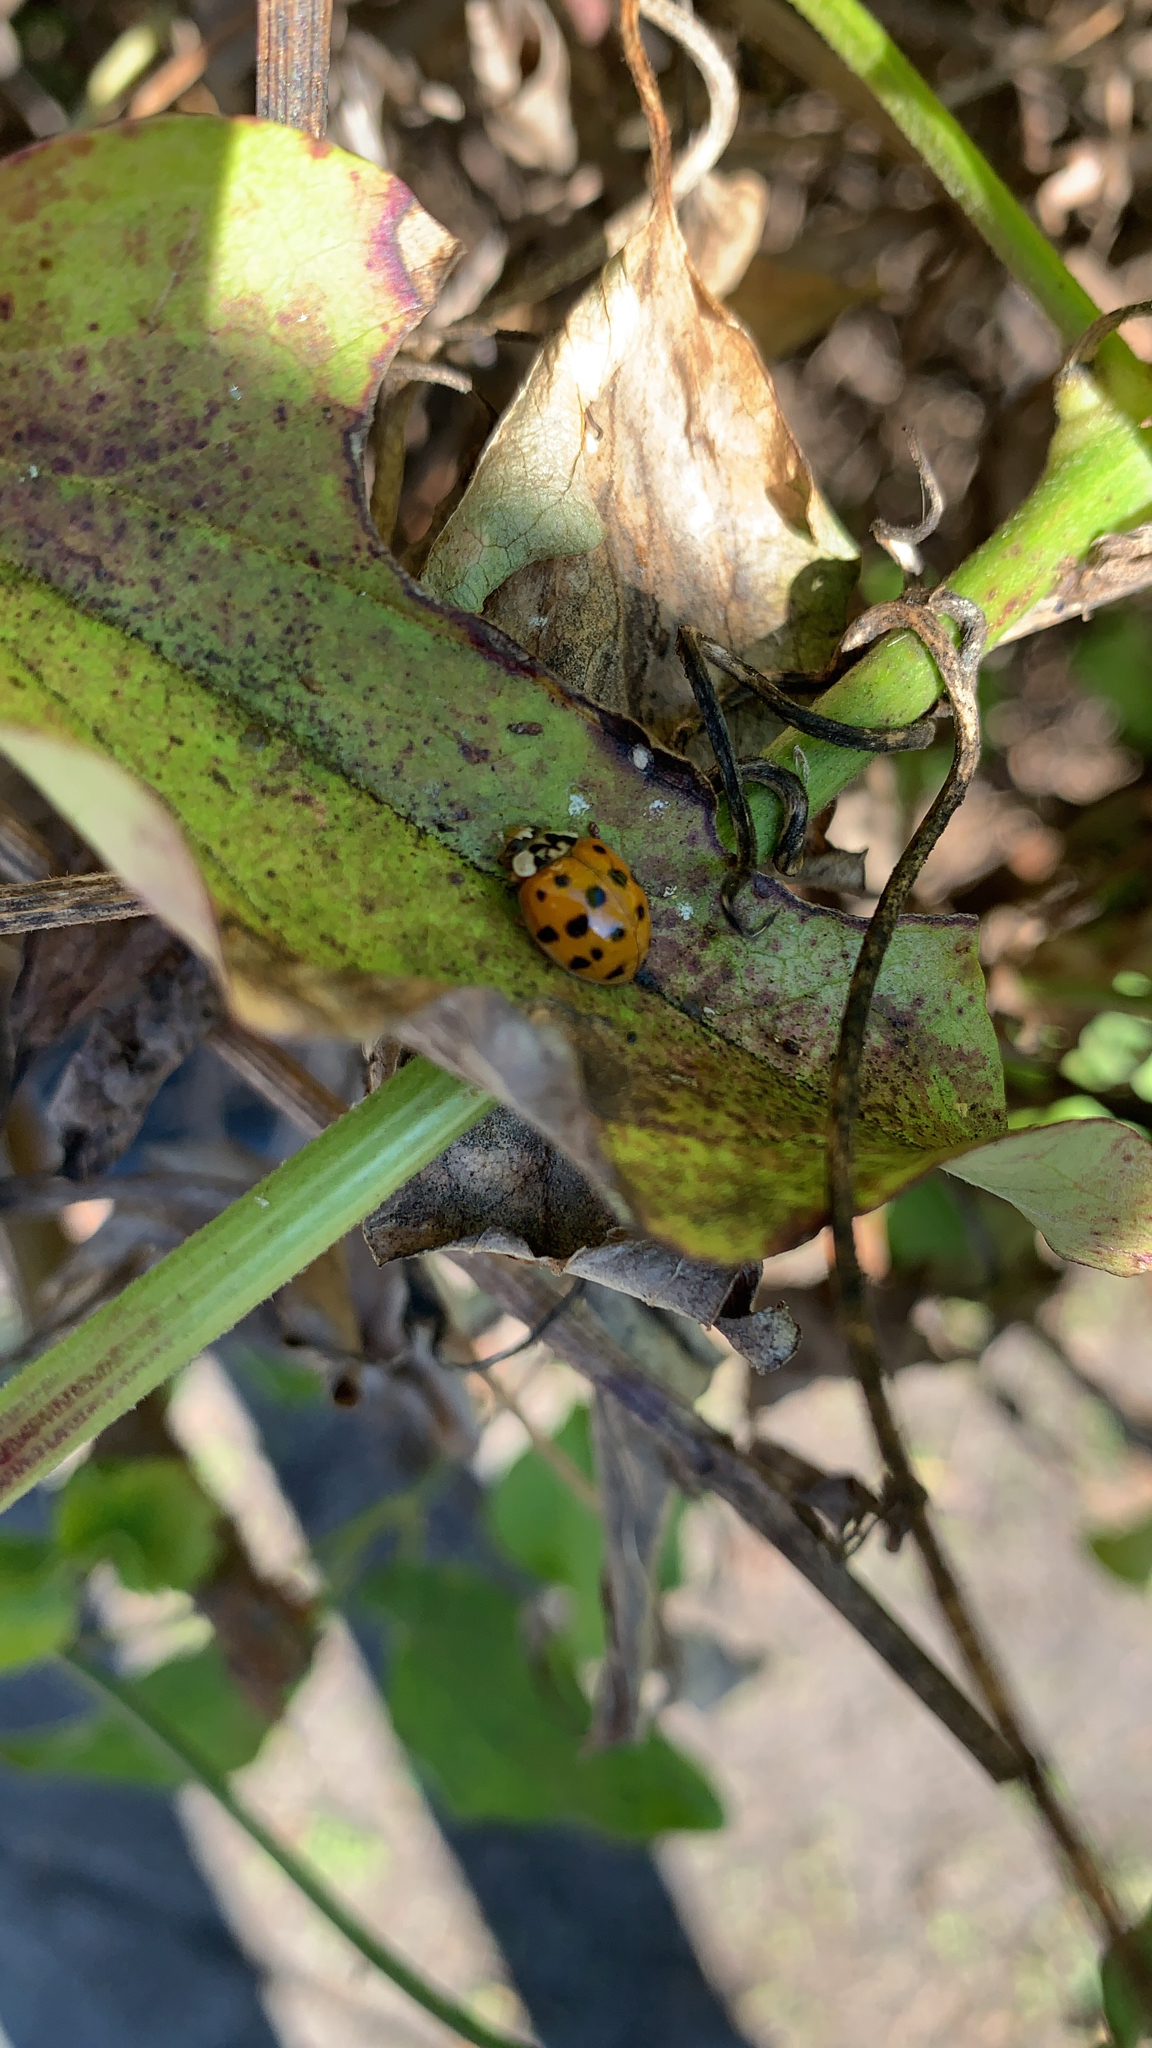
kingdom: Animalia
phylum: Arthropoda
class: Insecta
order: Coleoptera
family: Coccinellidae
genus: Harmonia
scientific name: Harmonia axyridis
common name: Harlequin ladybird
